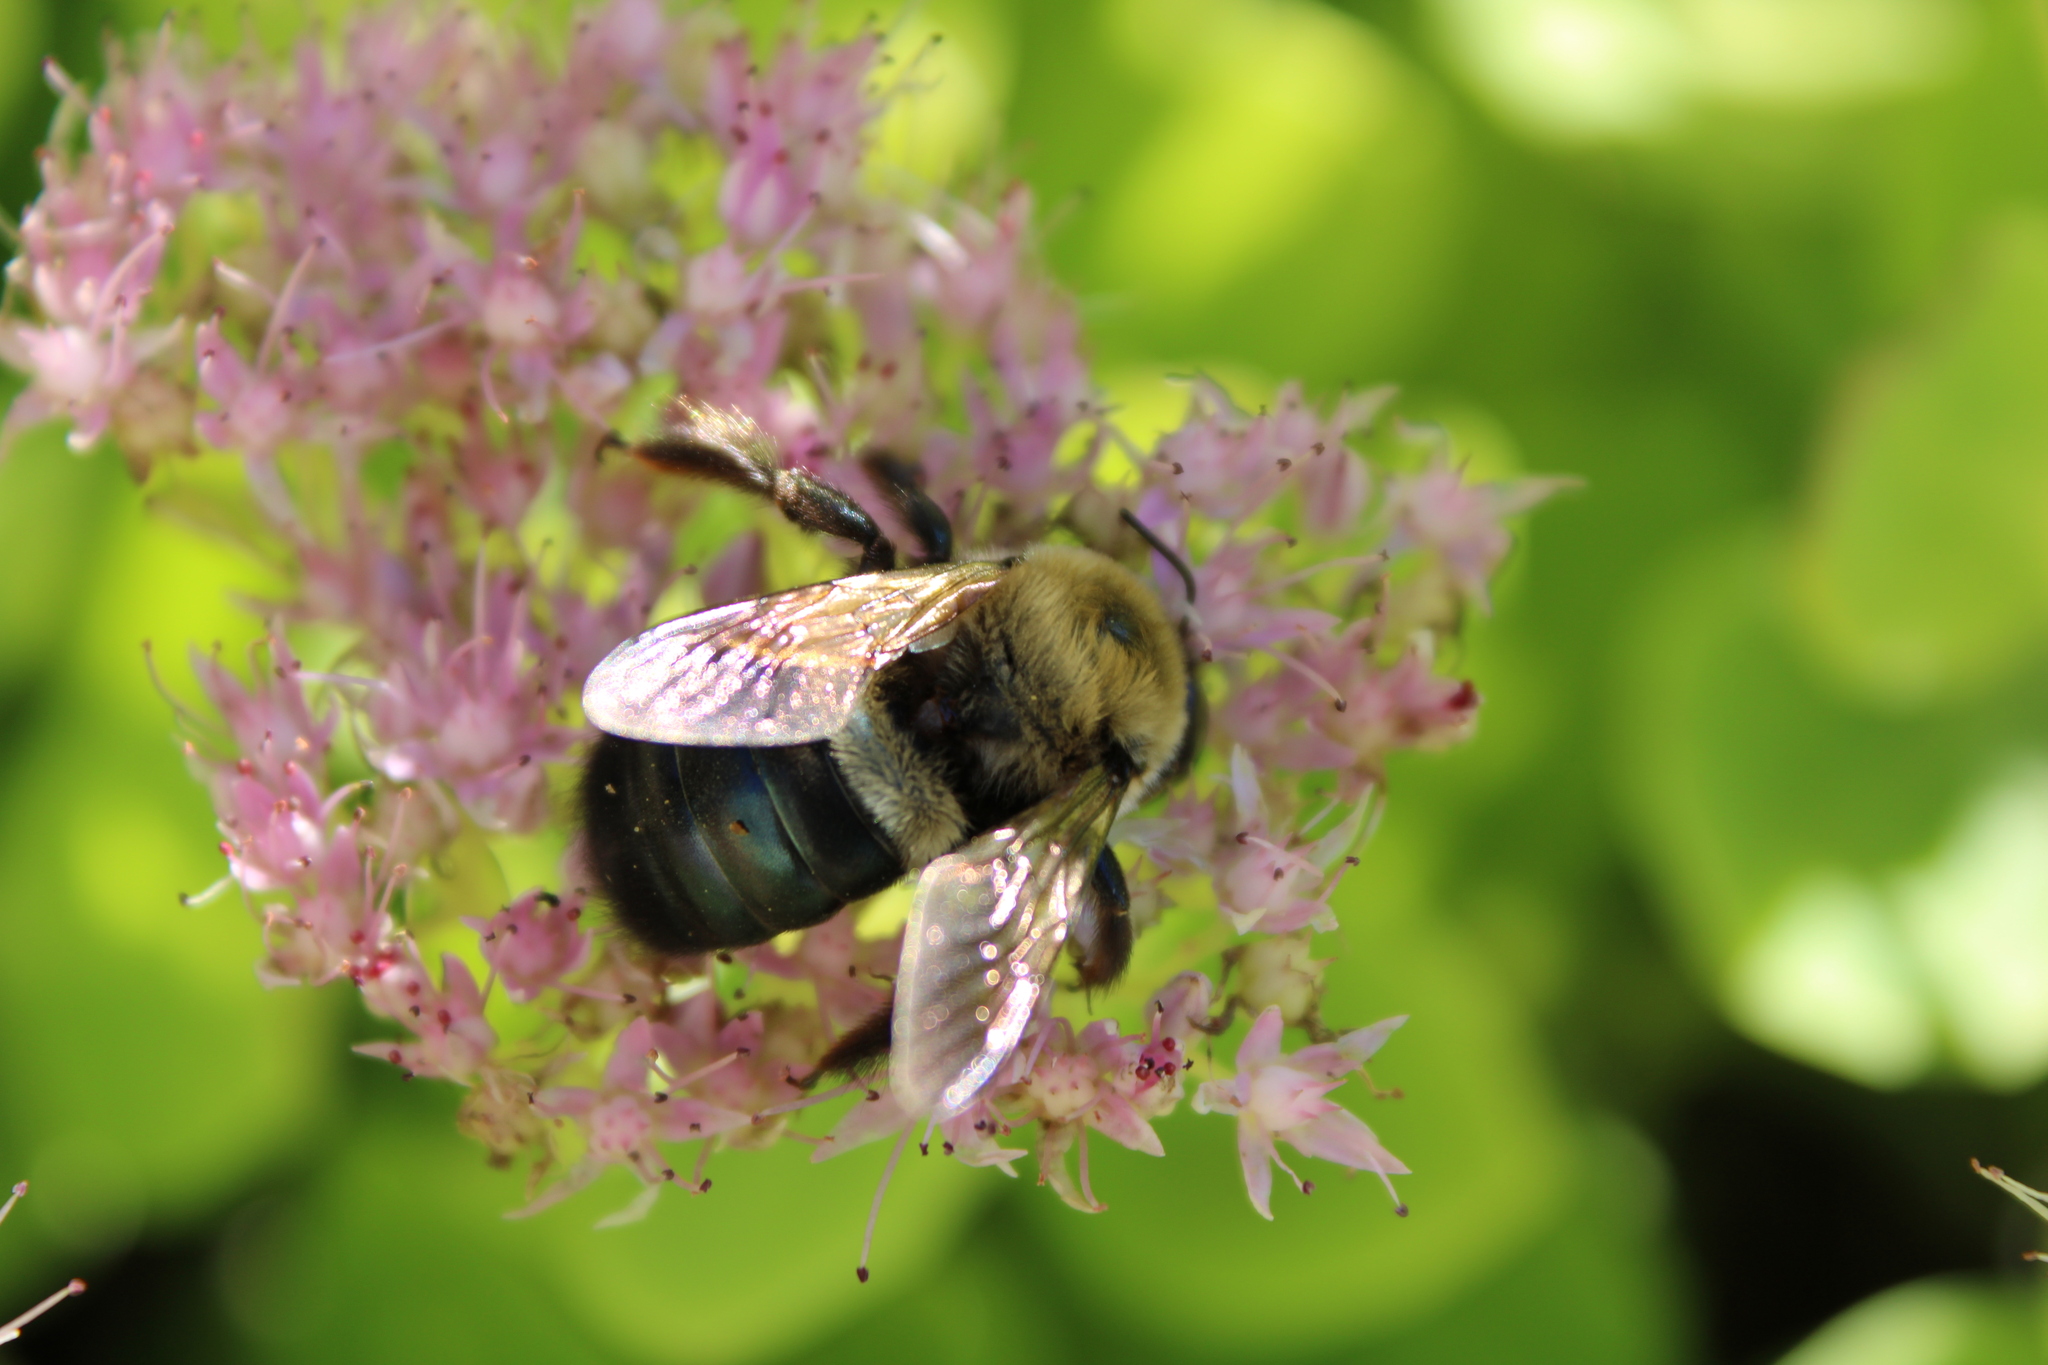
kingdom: Animalia
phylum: Arthropoda
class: Insecta
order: Hymenoptera
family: Apidae
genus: Xylocopa
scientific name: Xylocopa virginica
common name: Carpenter bee
